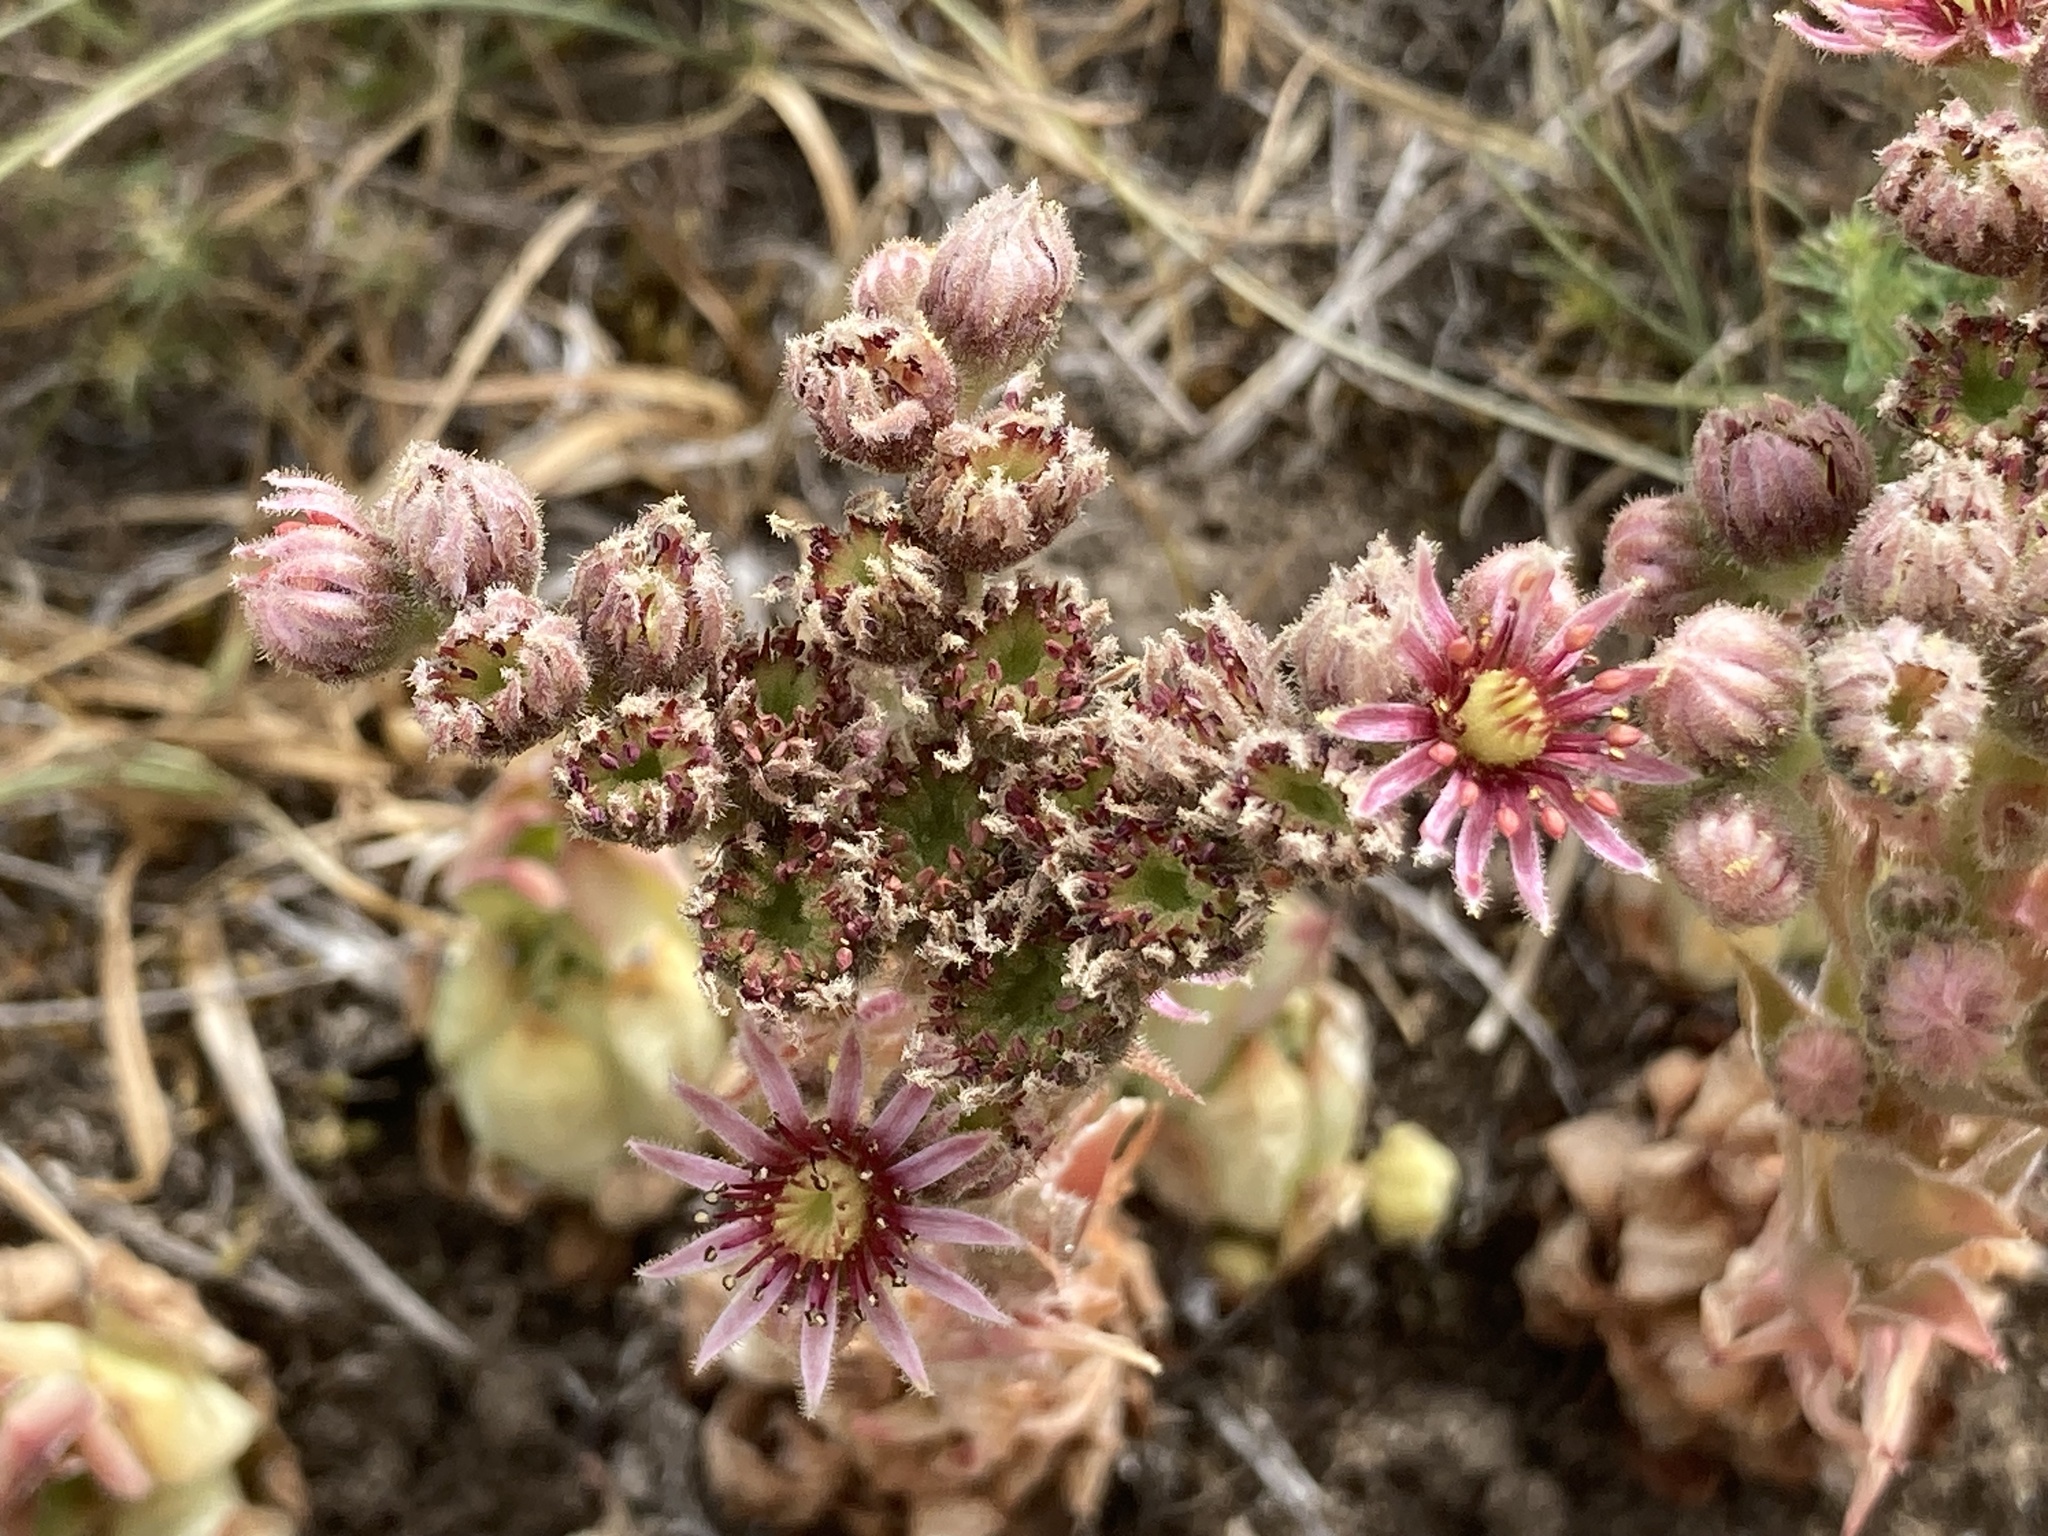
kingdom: Plantae
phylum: Tracheophyta
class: Magnoliopsida
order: Saxifragales
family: Crassulaceae
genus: Sempervivum
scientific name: Sempervivum tectorum
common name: House-leek
